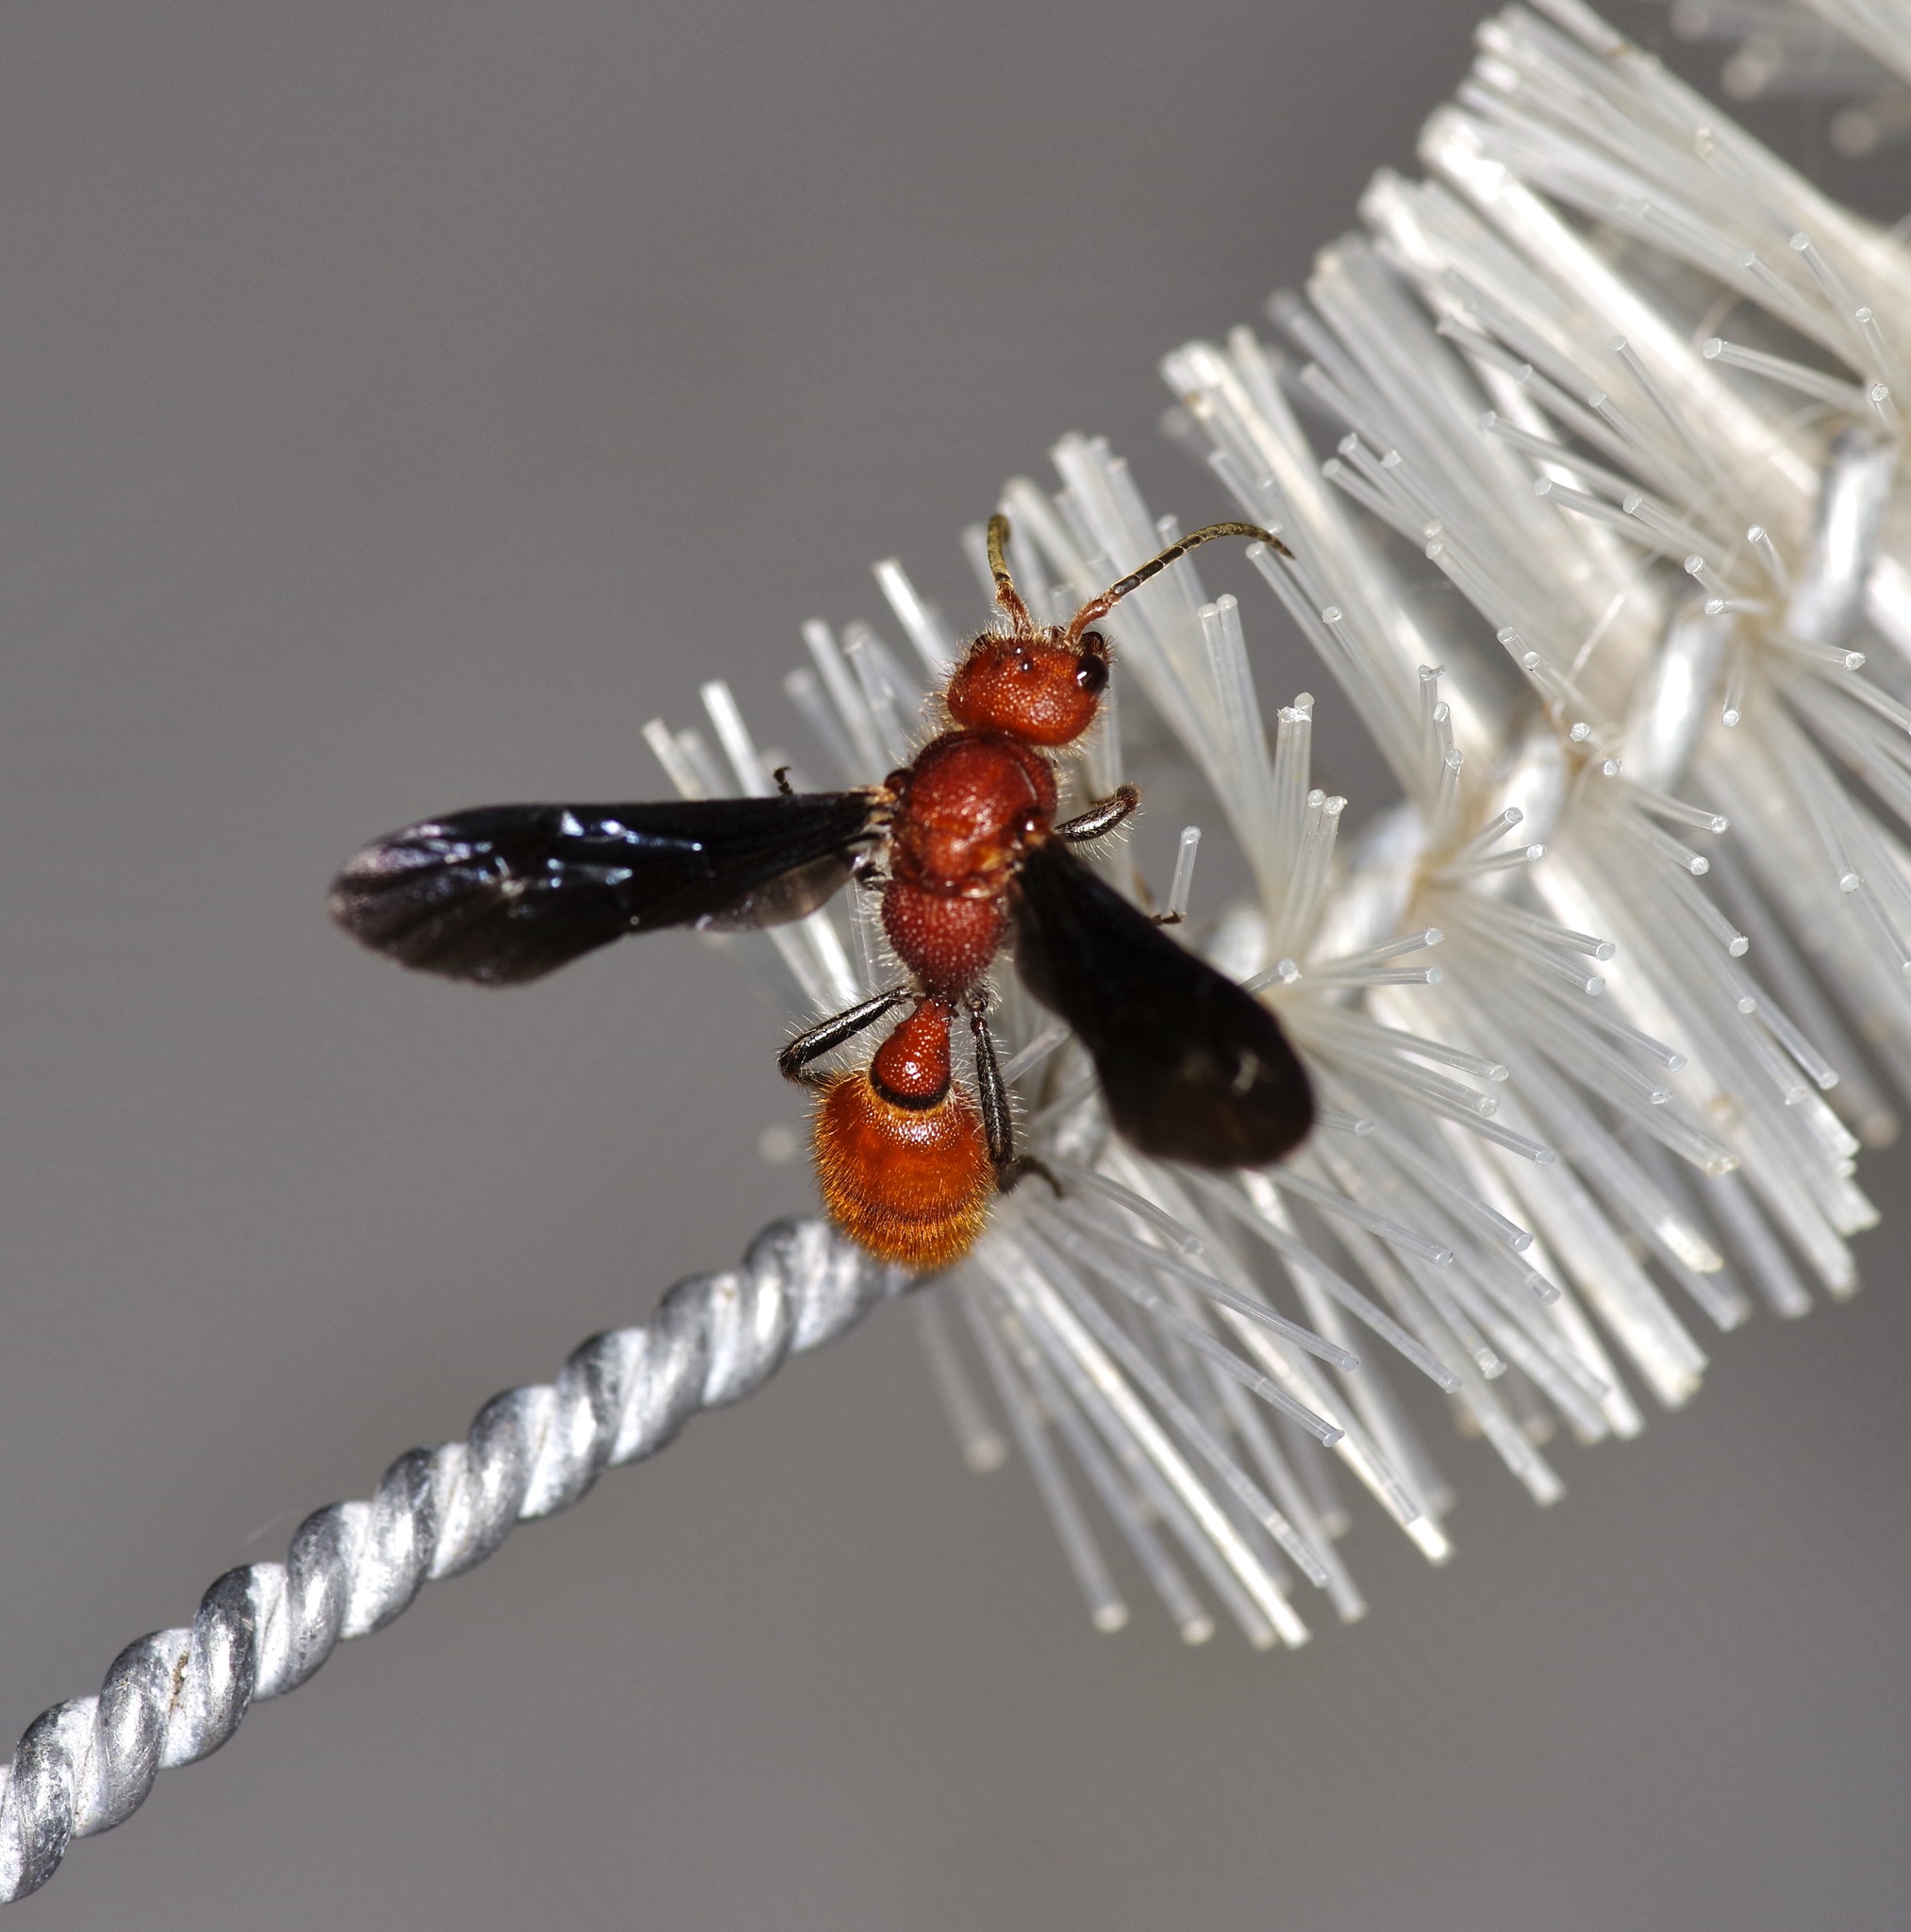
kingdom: Animalia
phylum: Arthropoda
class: Insecta
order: Hymenoptera
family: Mutillidae
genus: Sphaeropthalma
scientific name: Sphaeropthalma
